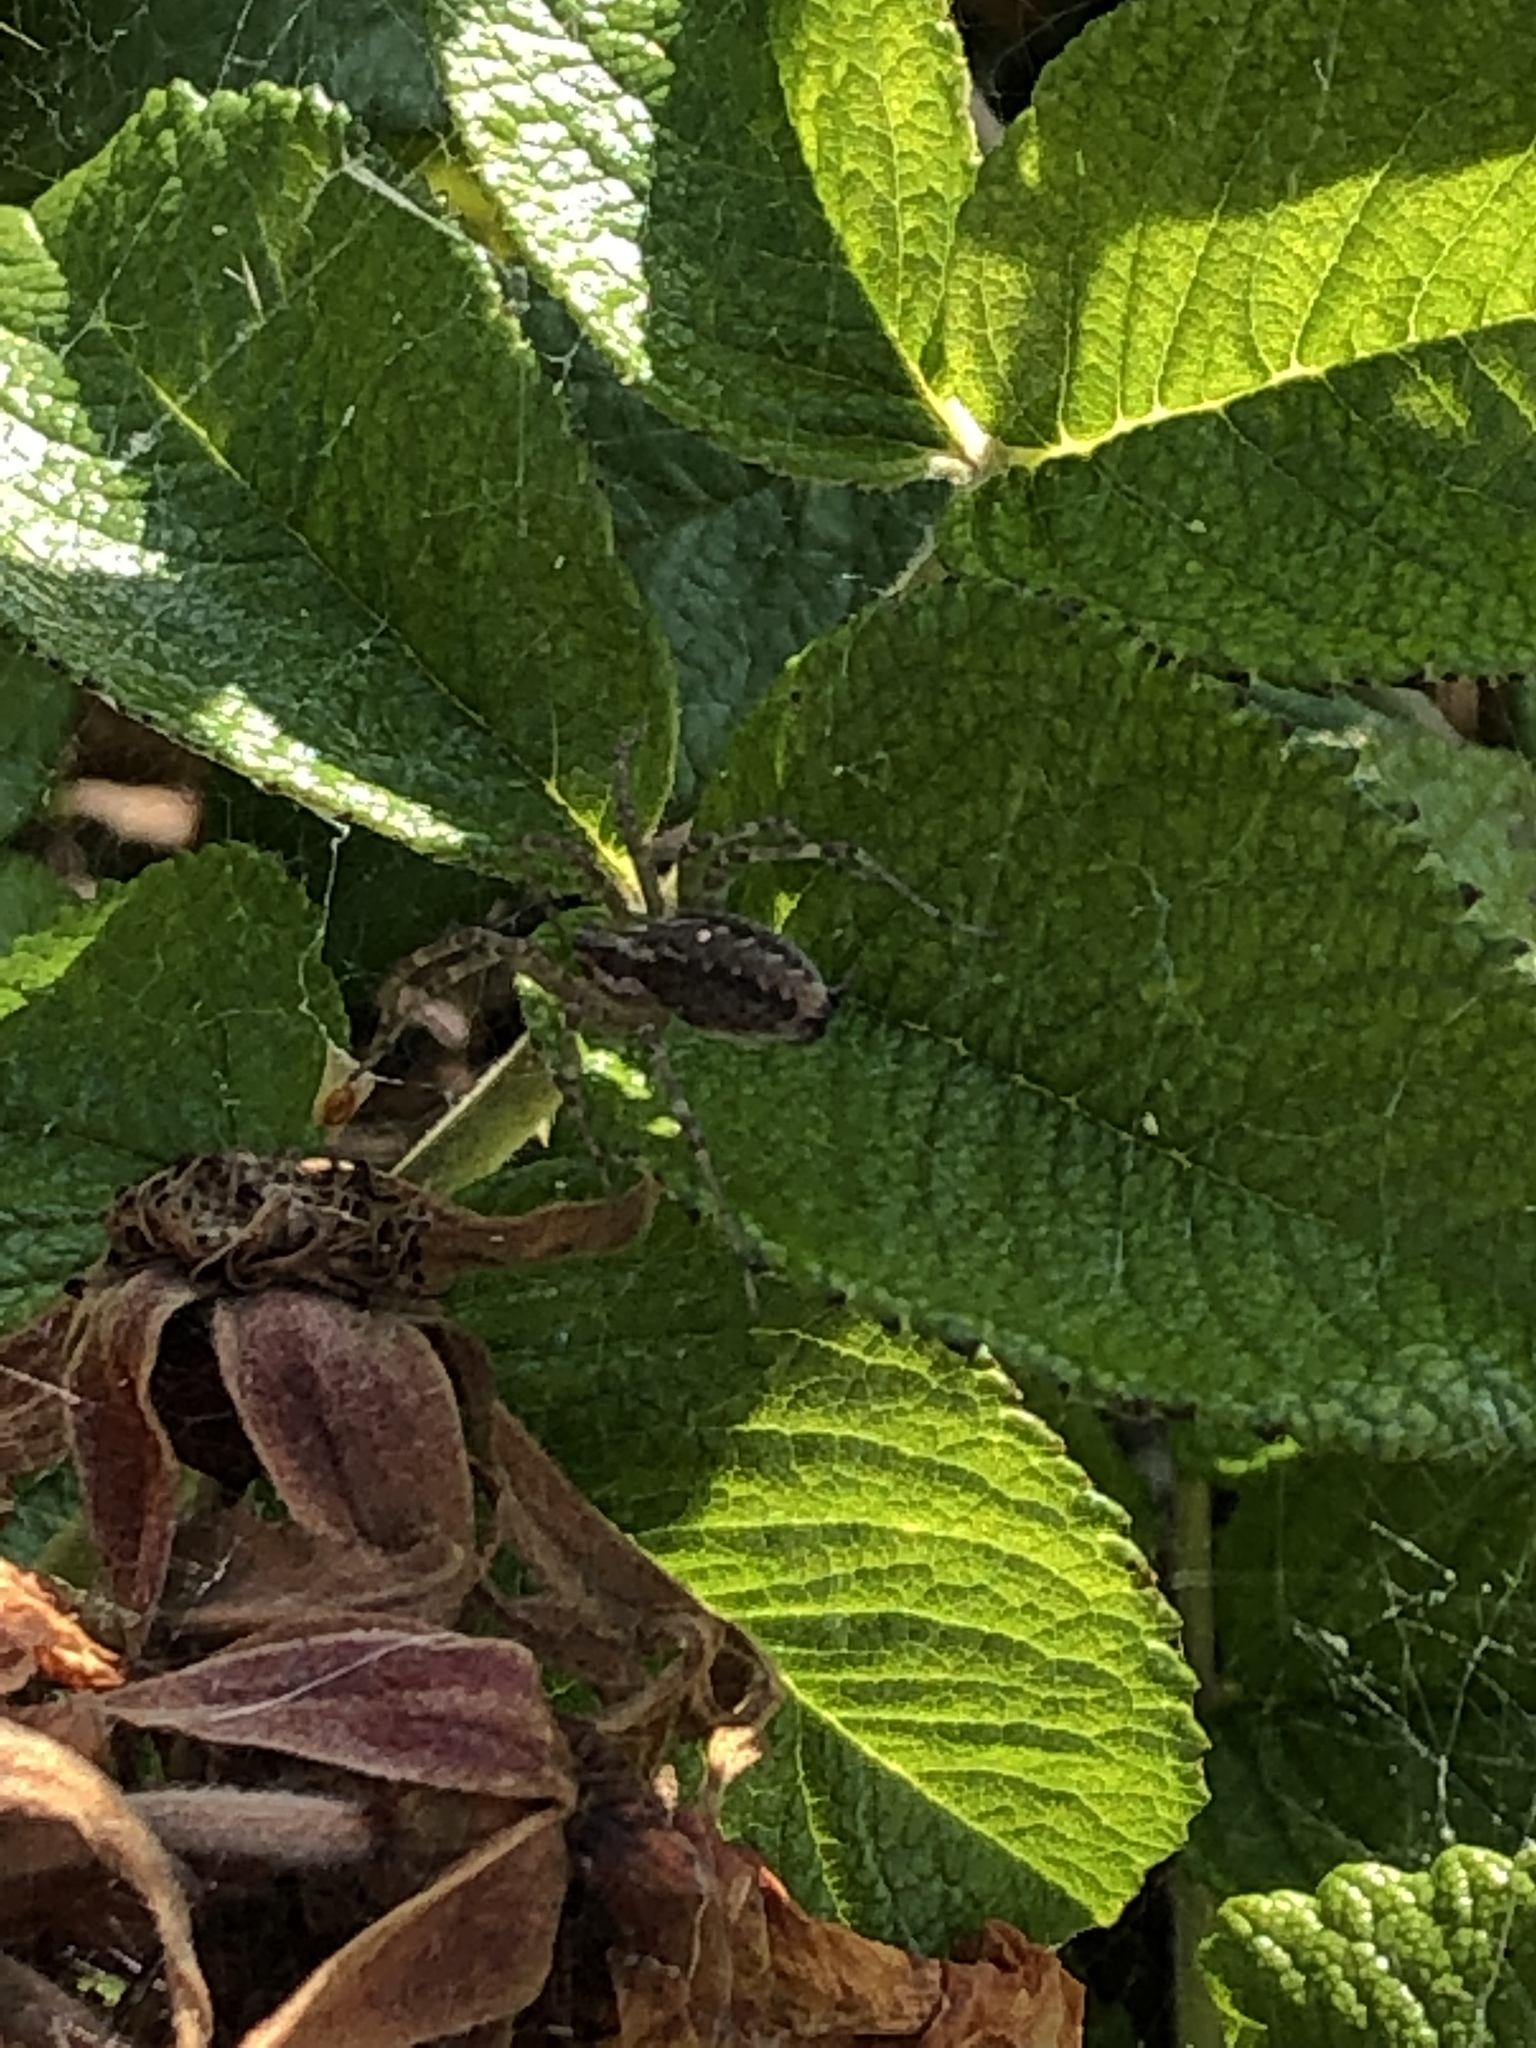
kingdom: Animalia
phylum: Arthropoda
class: Arachnida
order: Araneae
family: Agelenidae
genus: Allagelena
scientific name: Allagelena gracilens
